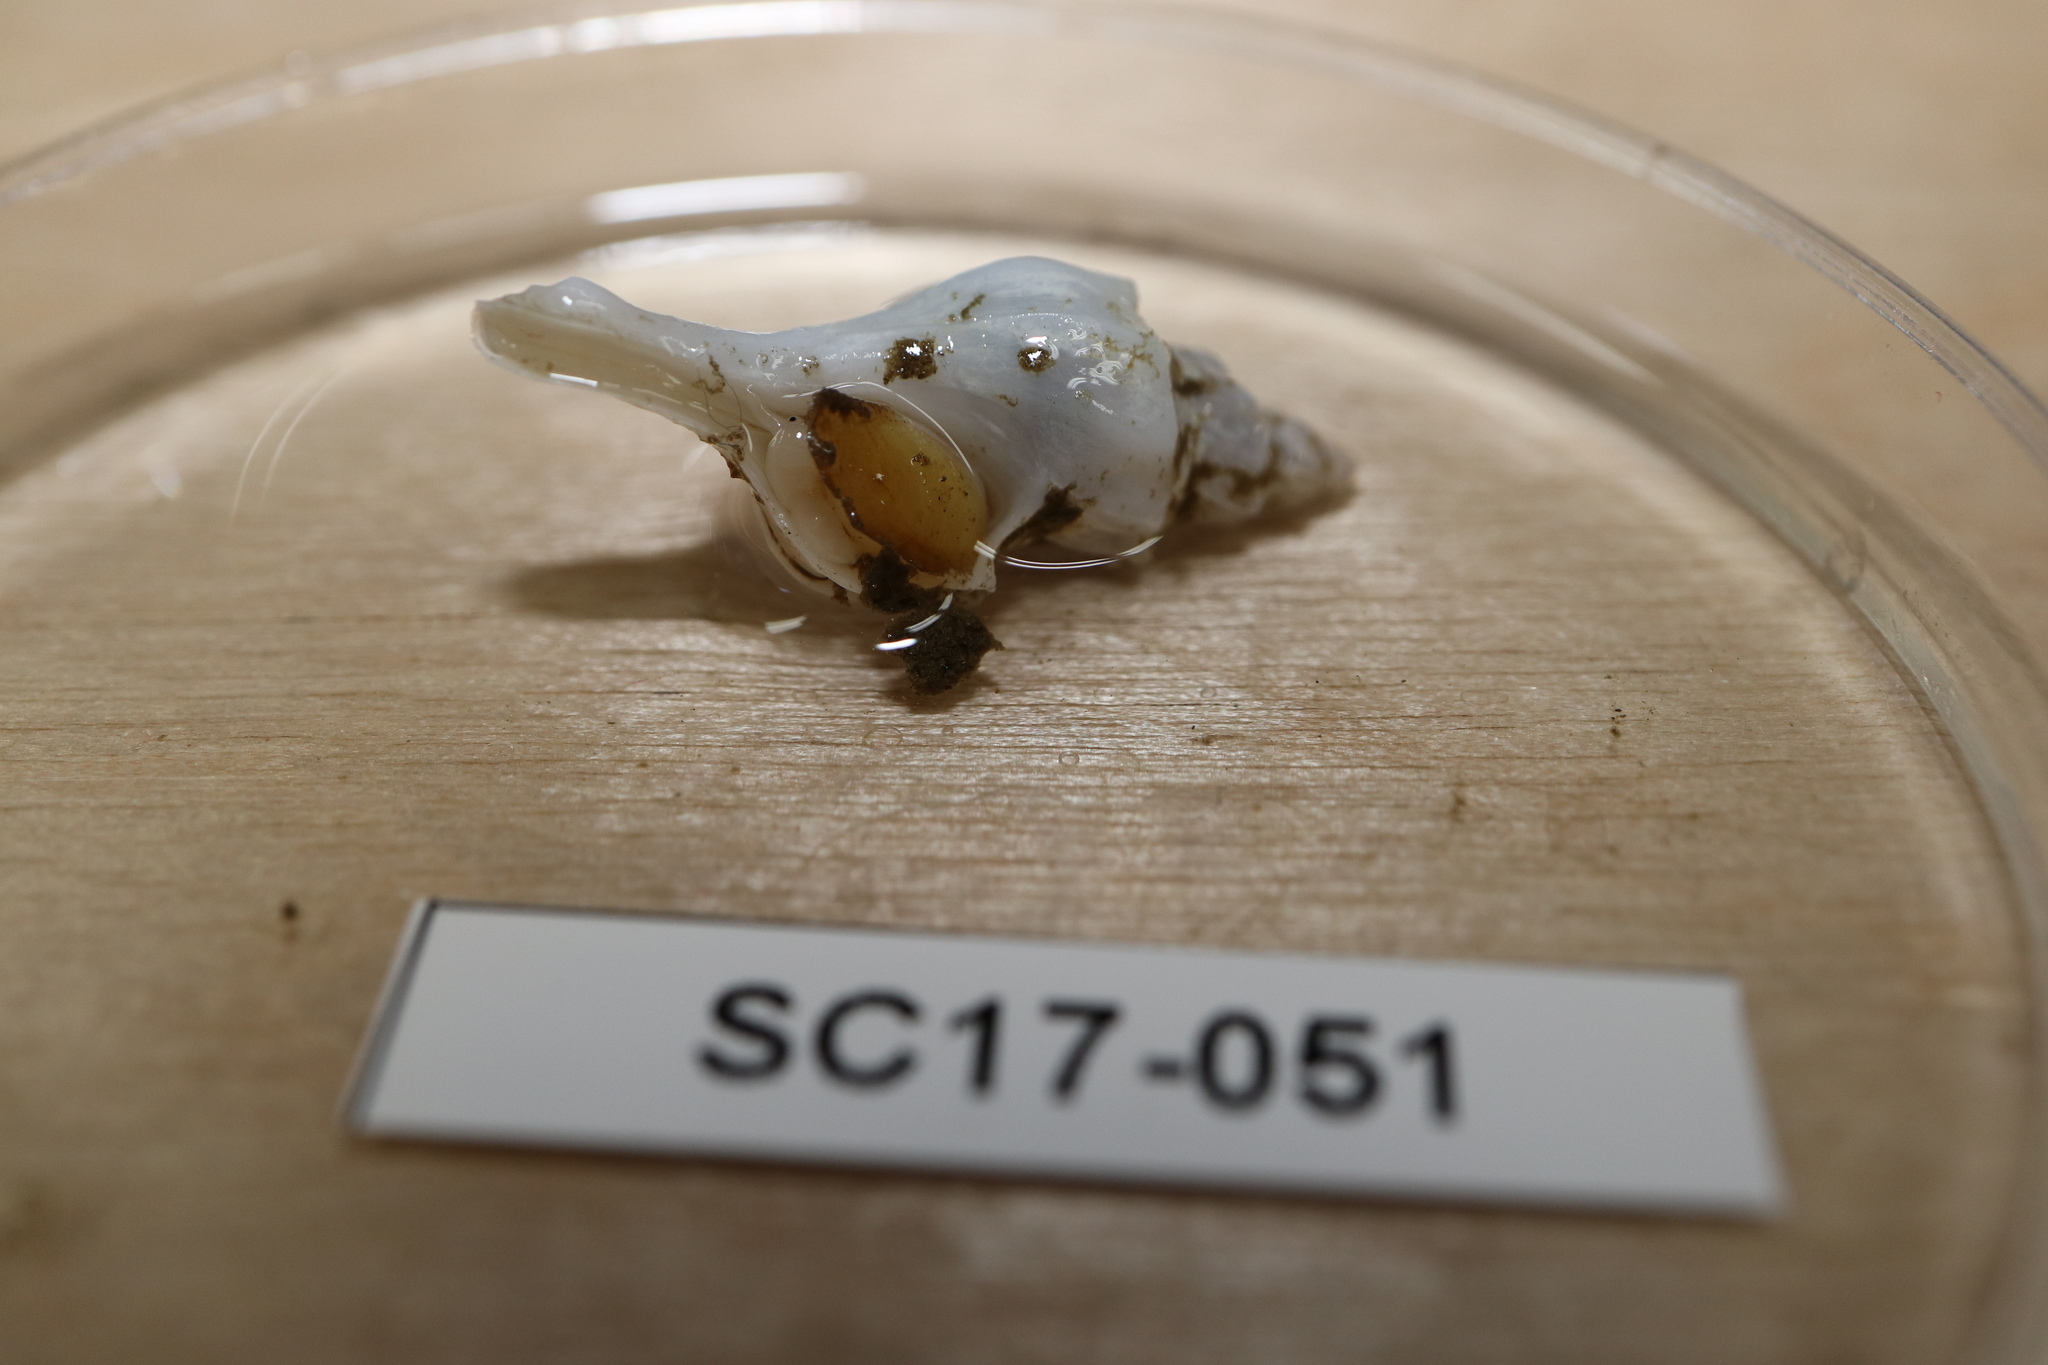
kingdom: Animalia
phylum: Mollusca
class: Gastropoda
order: Neogastropoda
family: Muricidae
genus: Boreotrophon
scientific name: Boreotrophon pedroanus
